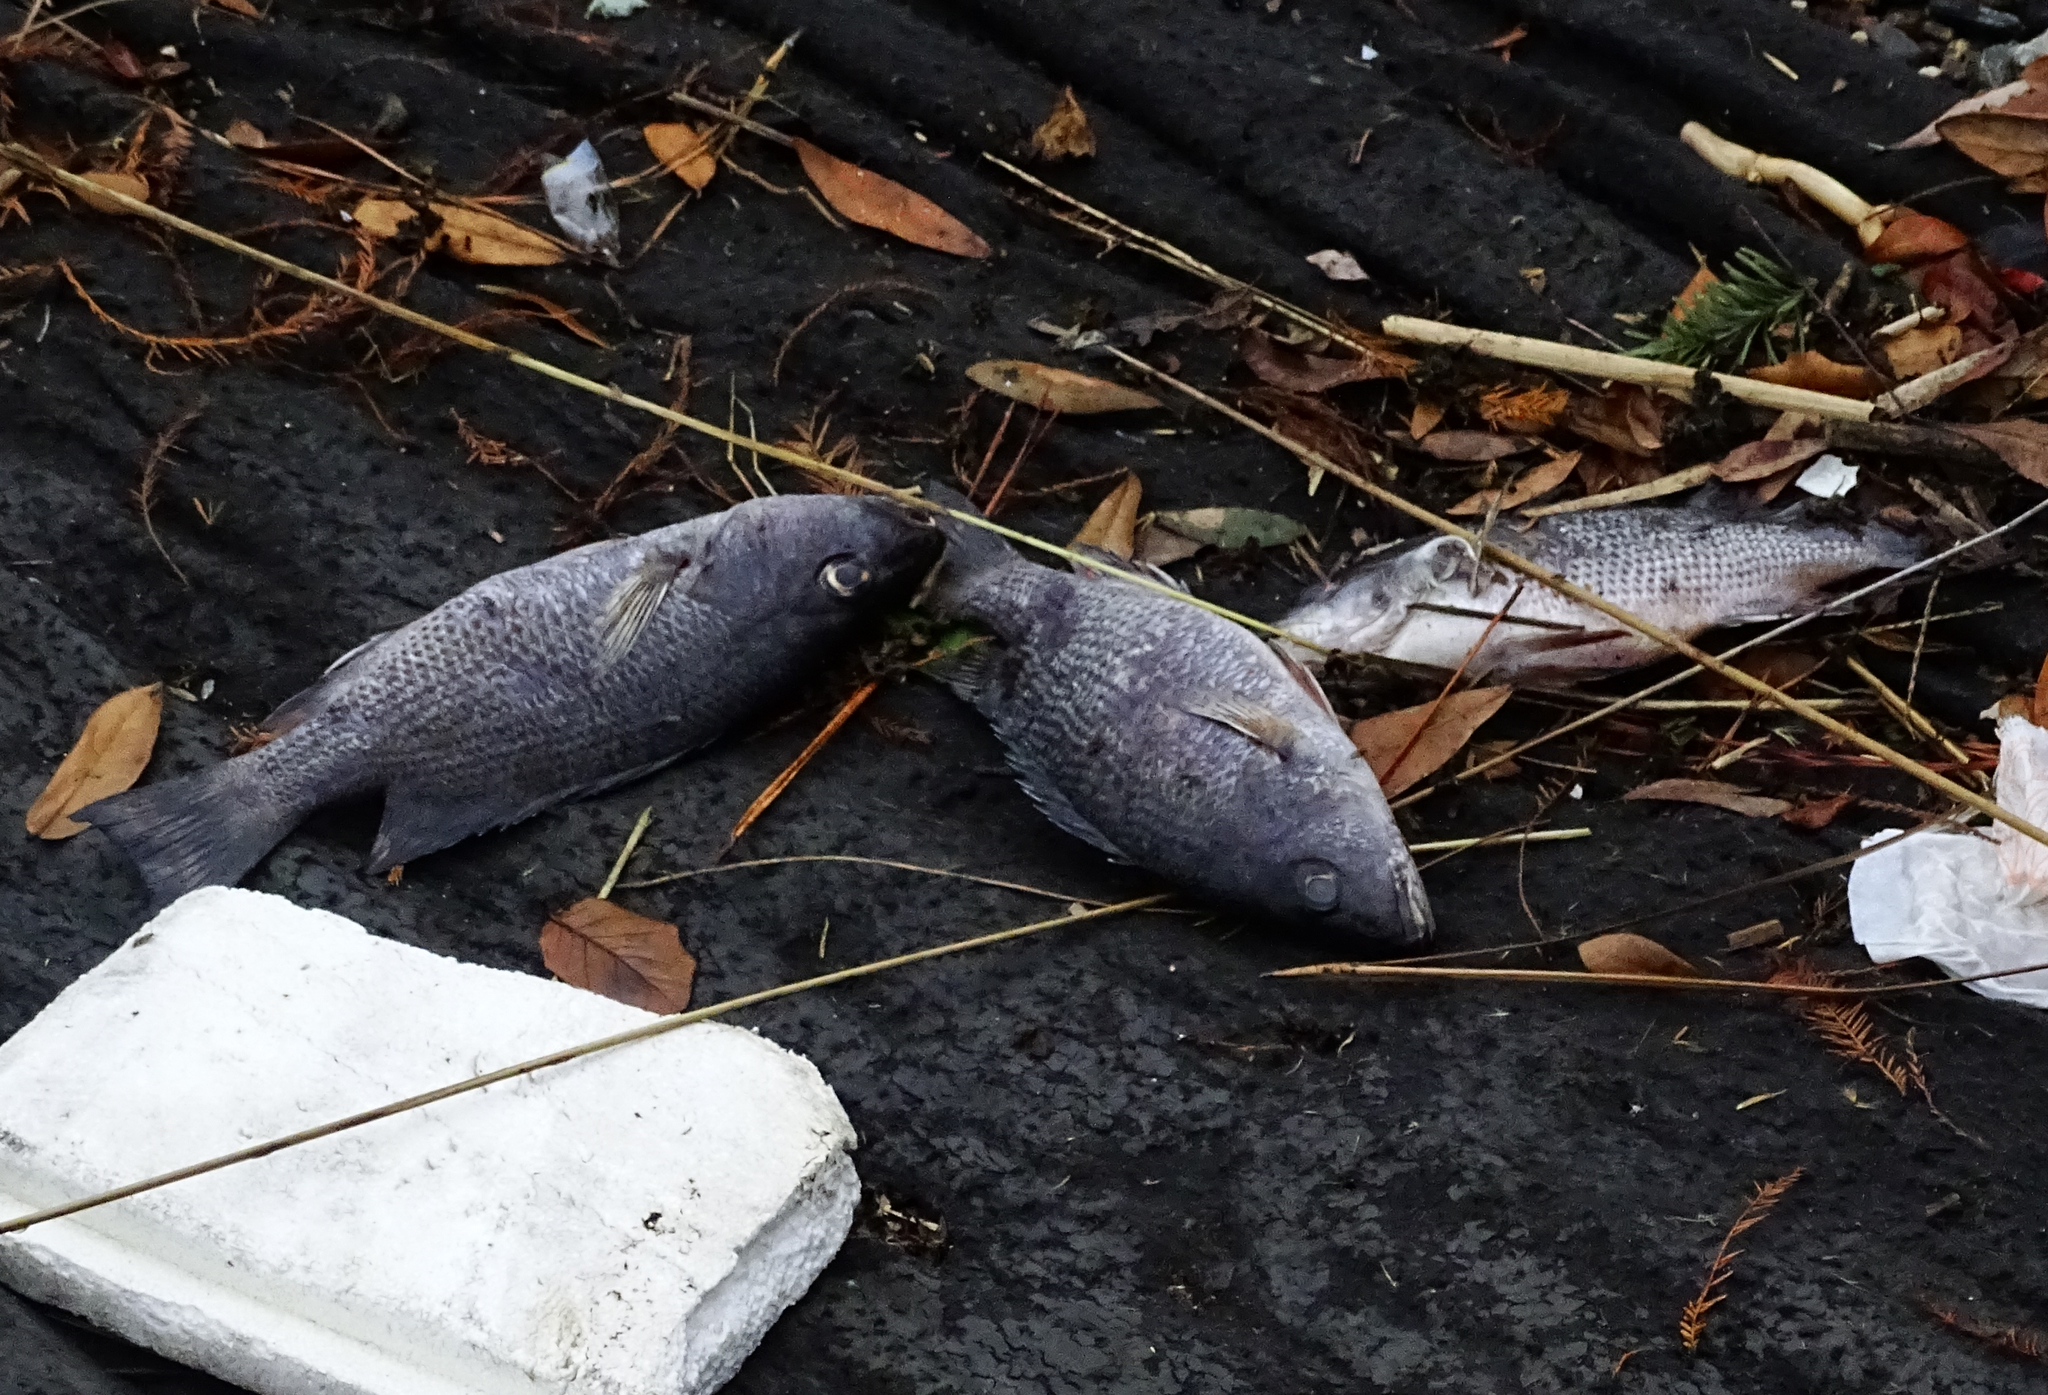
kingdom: Animalia
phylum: Chordata
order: Perciformes
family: Lutjanidae
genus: Lutjanus
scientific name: Lutjanus griseus
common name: Gray snapper
